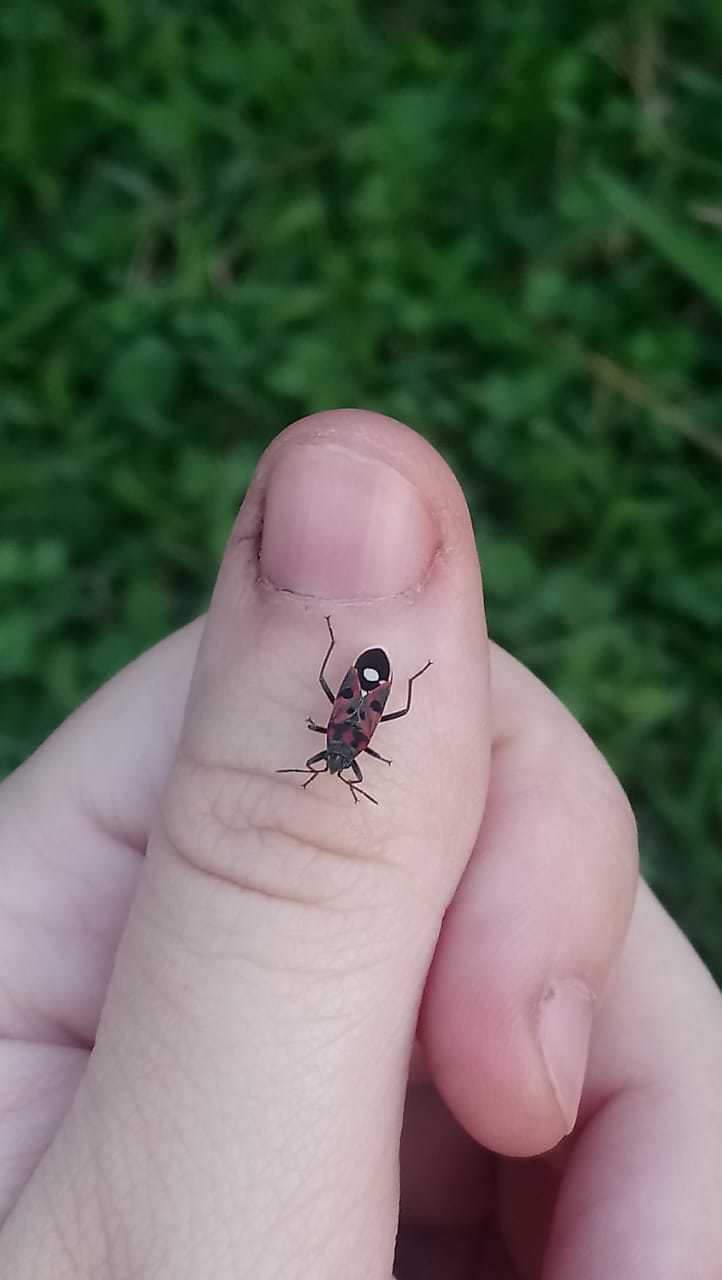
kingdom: Animalia
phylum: Arthropoda
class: Insecta
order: Hemiptera
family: Lygaeidae
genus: Lygaeus
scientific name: Lygaeus alboornatus
